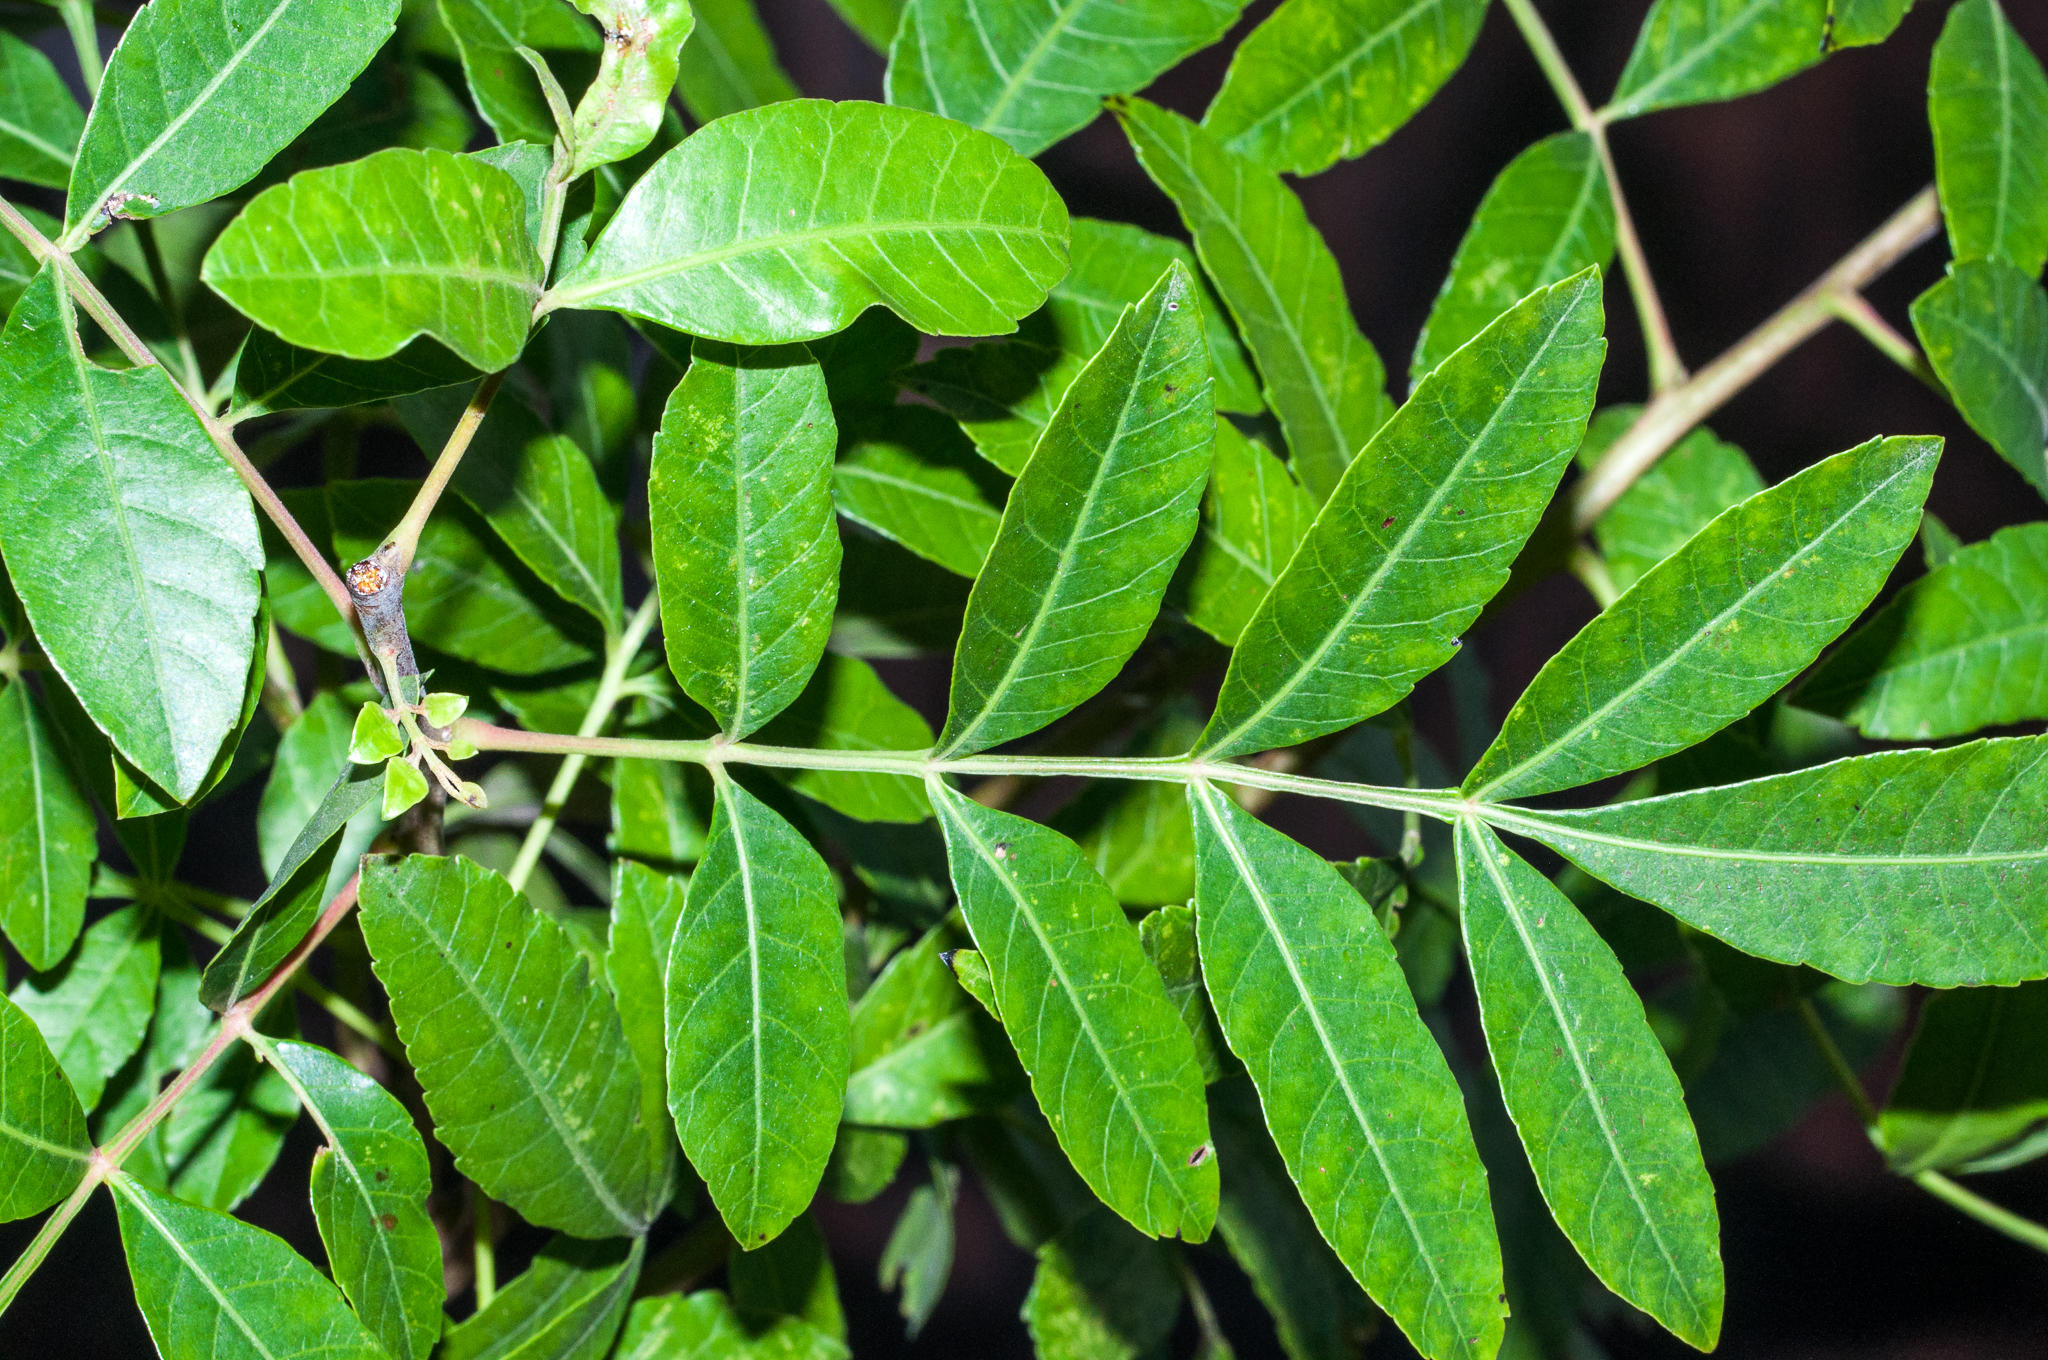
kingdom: Plantae
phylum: Tracheophyta
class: Magnoliopsida
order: Sapindales
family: Anacardiaceae
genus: Schinus
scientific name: Schinus terebinthifolia
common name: Brazilian peppertree
